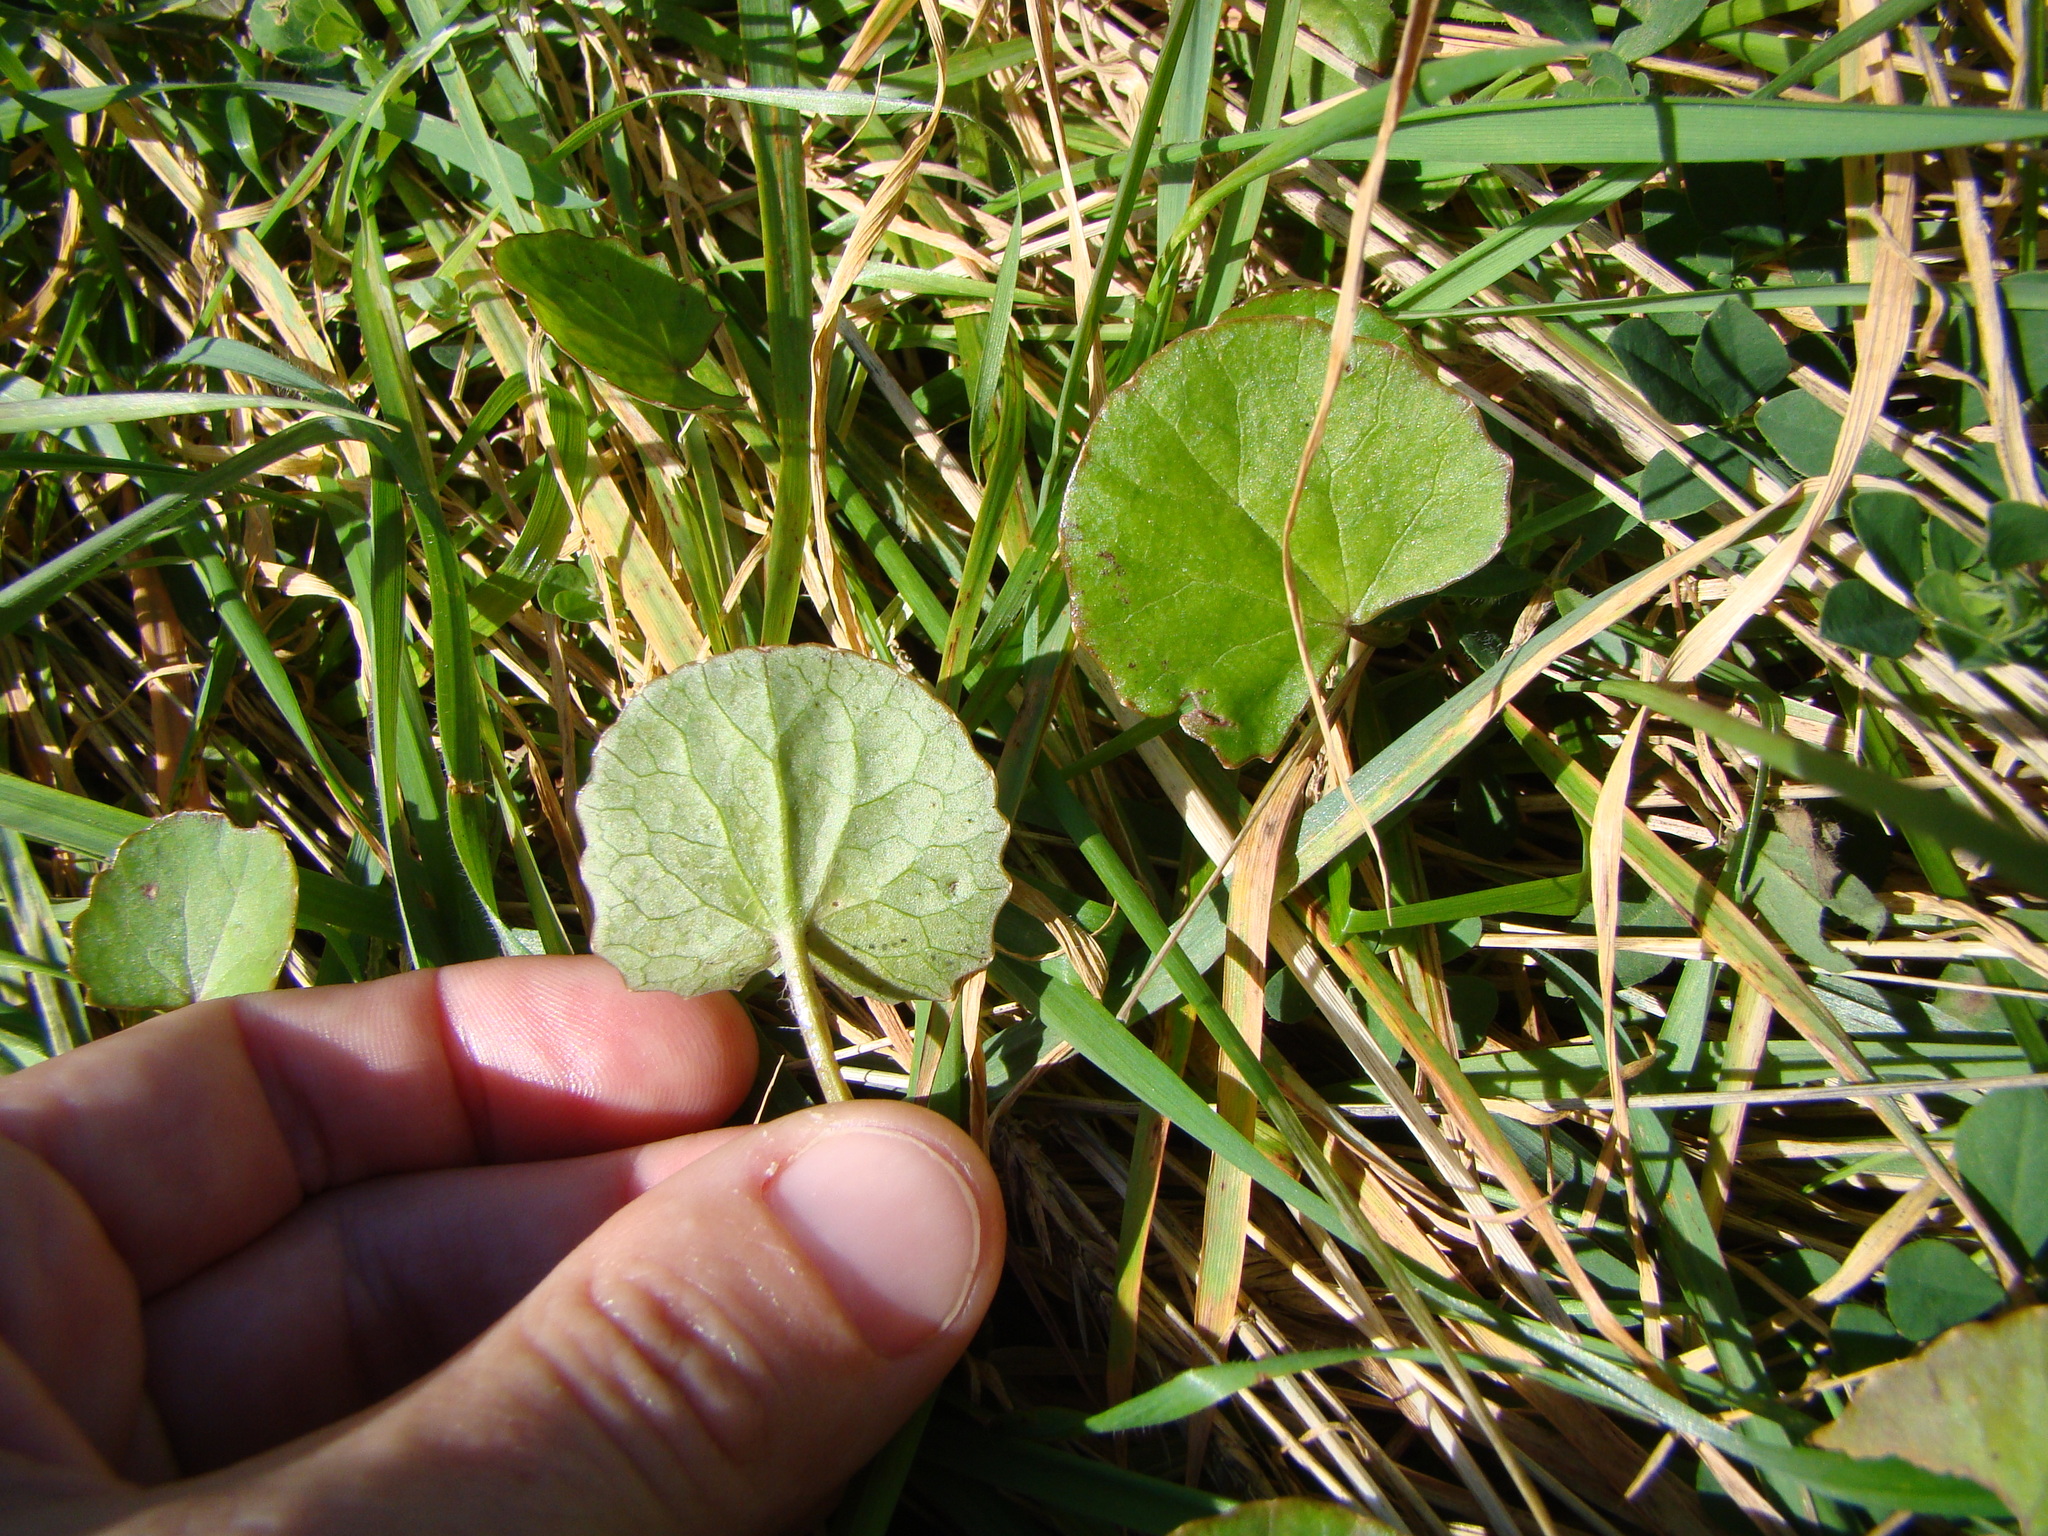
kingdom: Plantae
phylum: Tracheophyta
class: Magnoliopsida
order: Apiales
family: Apiaceae
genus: Centella
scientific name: Centella uniflora
